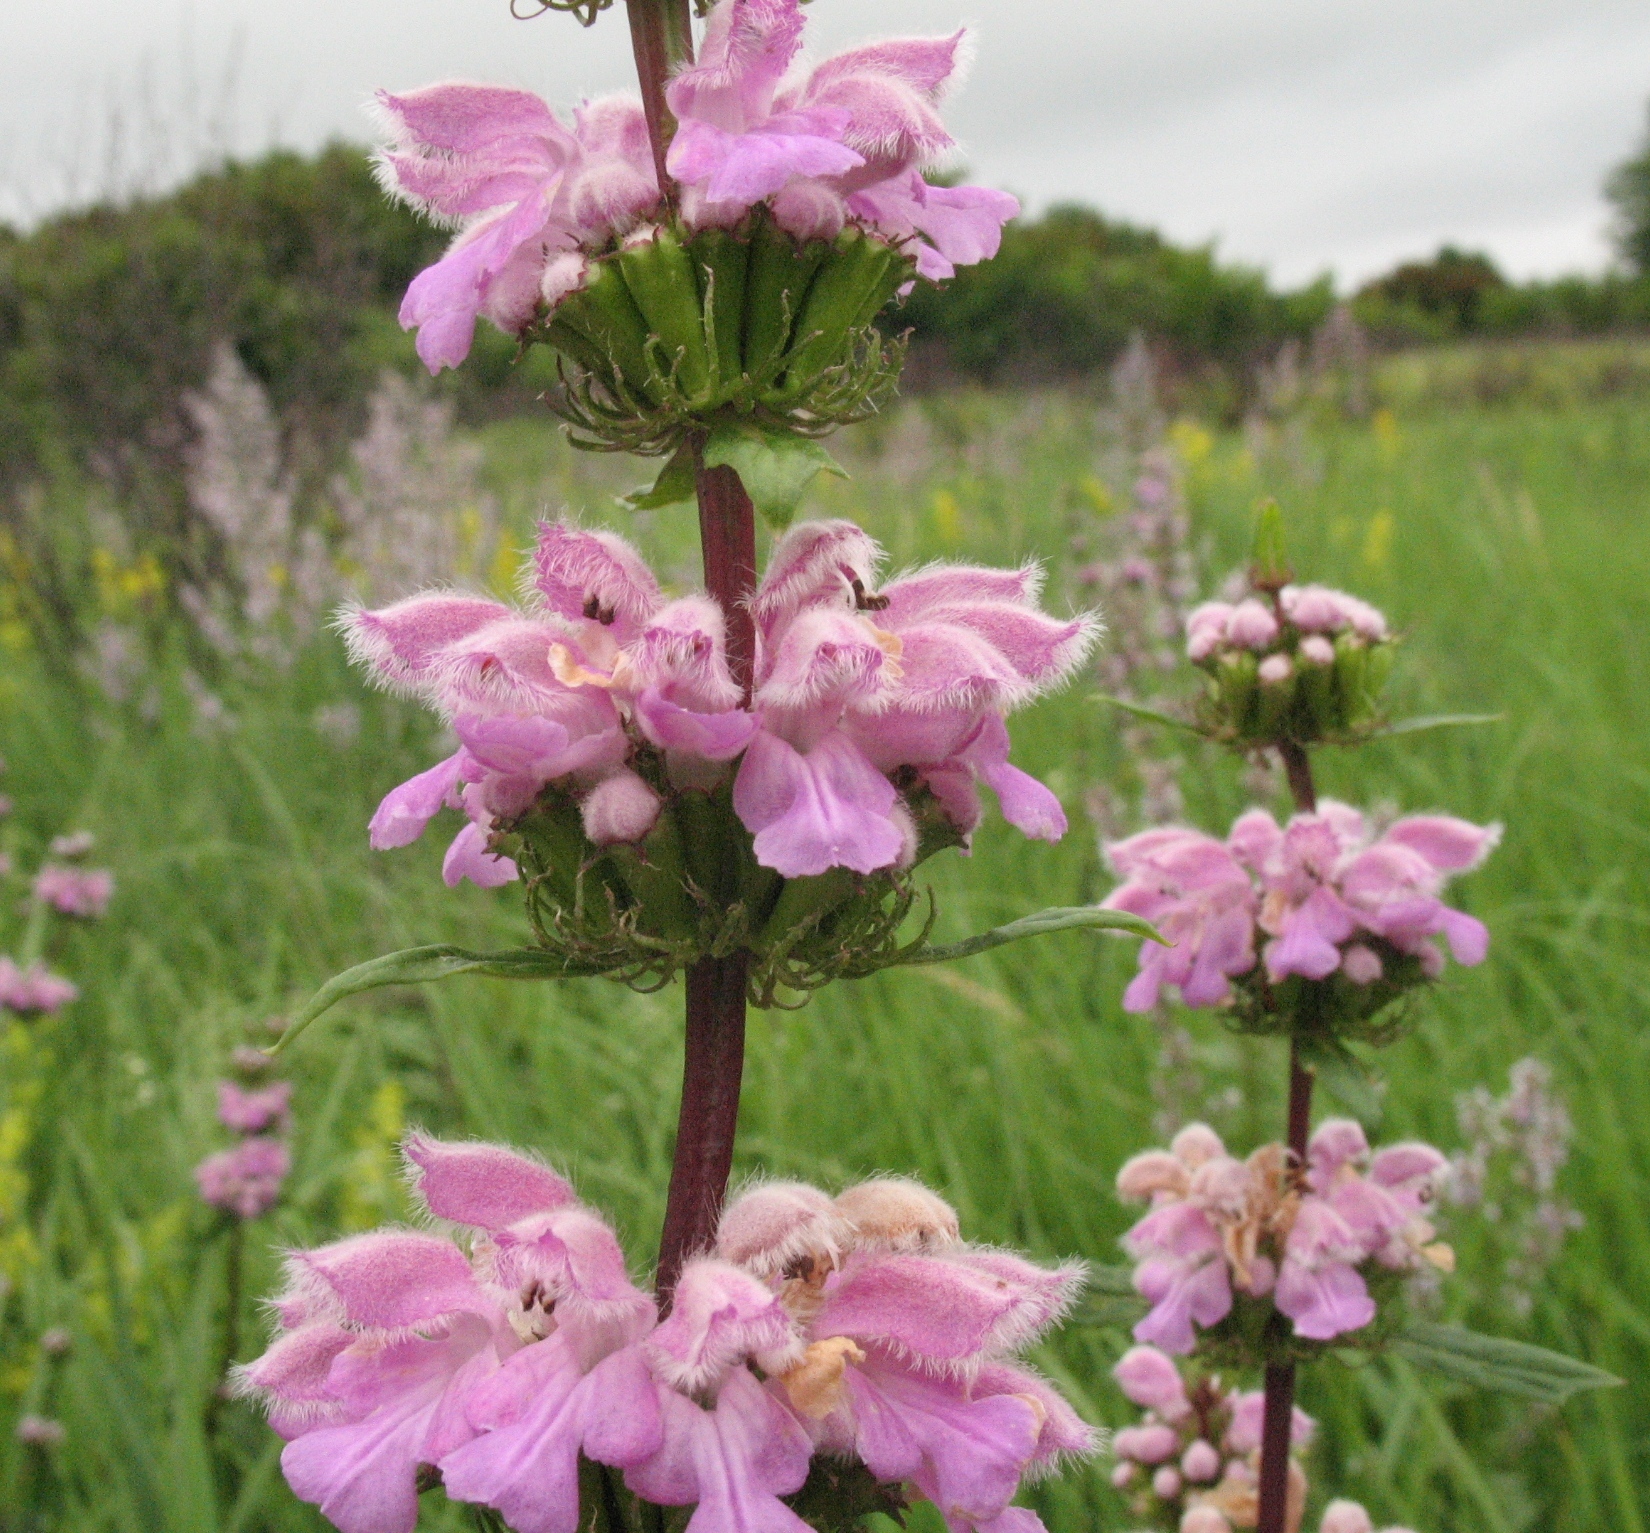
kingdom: Plantae
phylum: Tracheophyta
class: Magnoliopsida
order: Lamiales
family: Lamiaceae
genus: Phlomoides
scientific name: Phlomoides tuberosa
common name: Tuberous jerusalem sage
